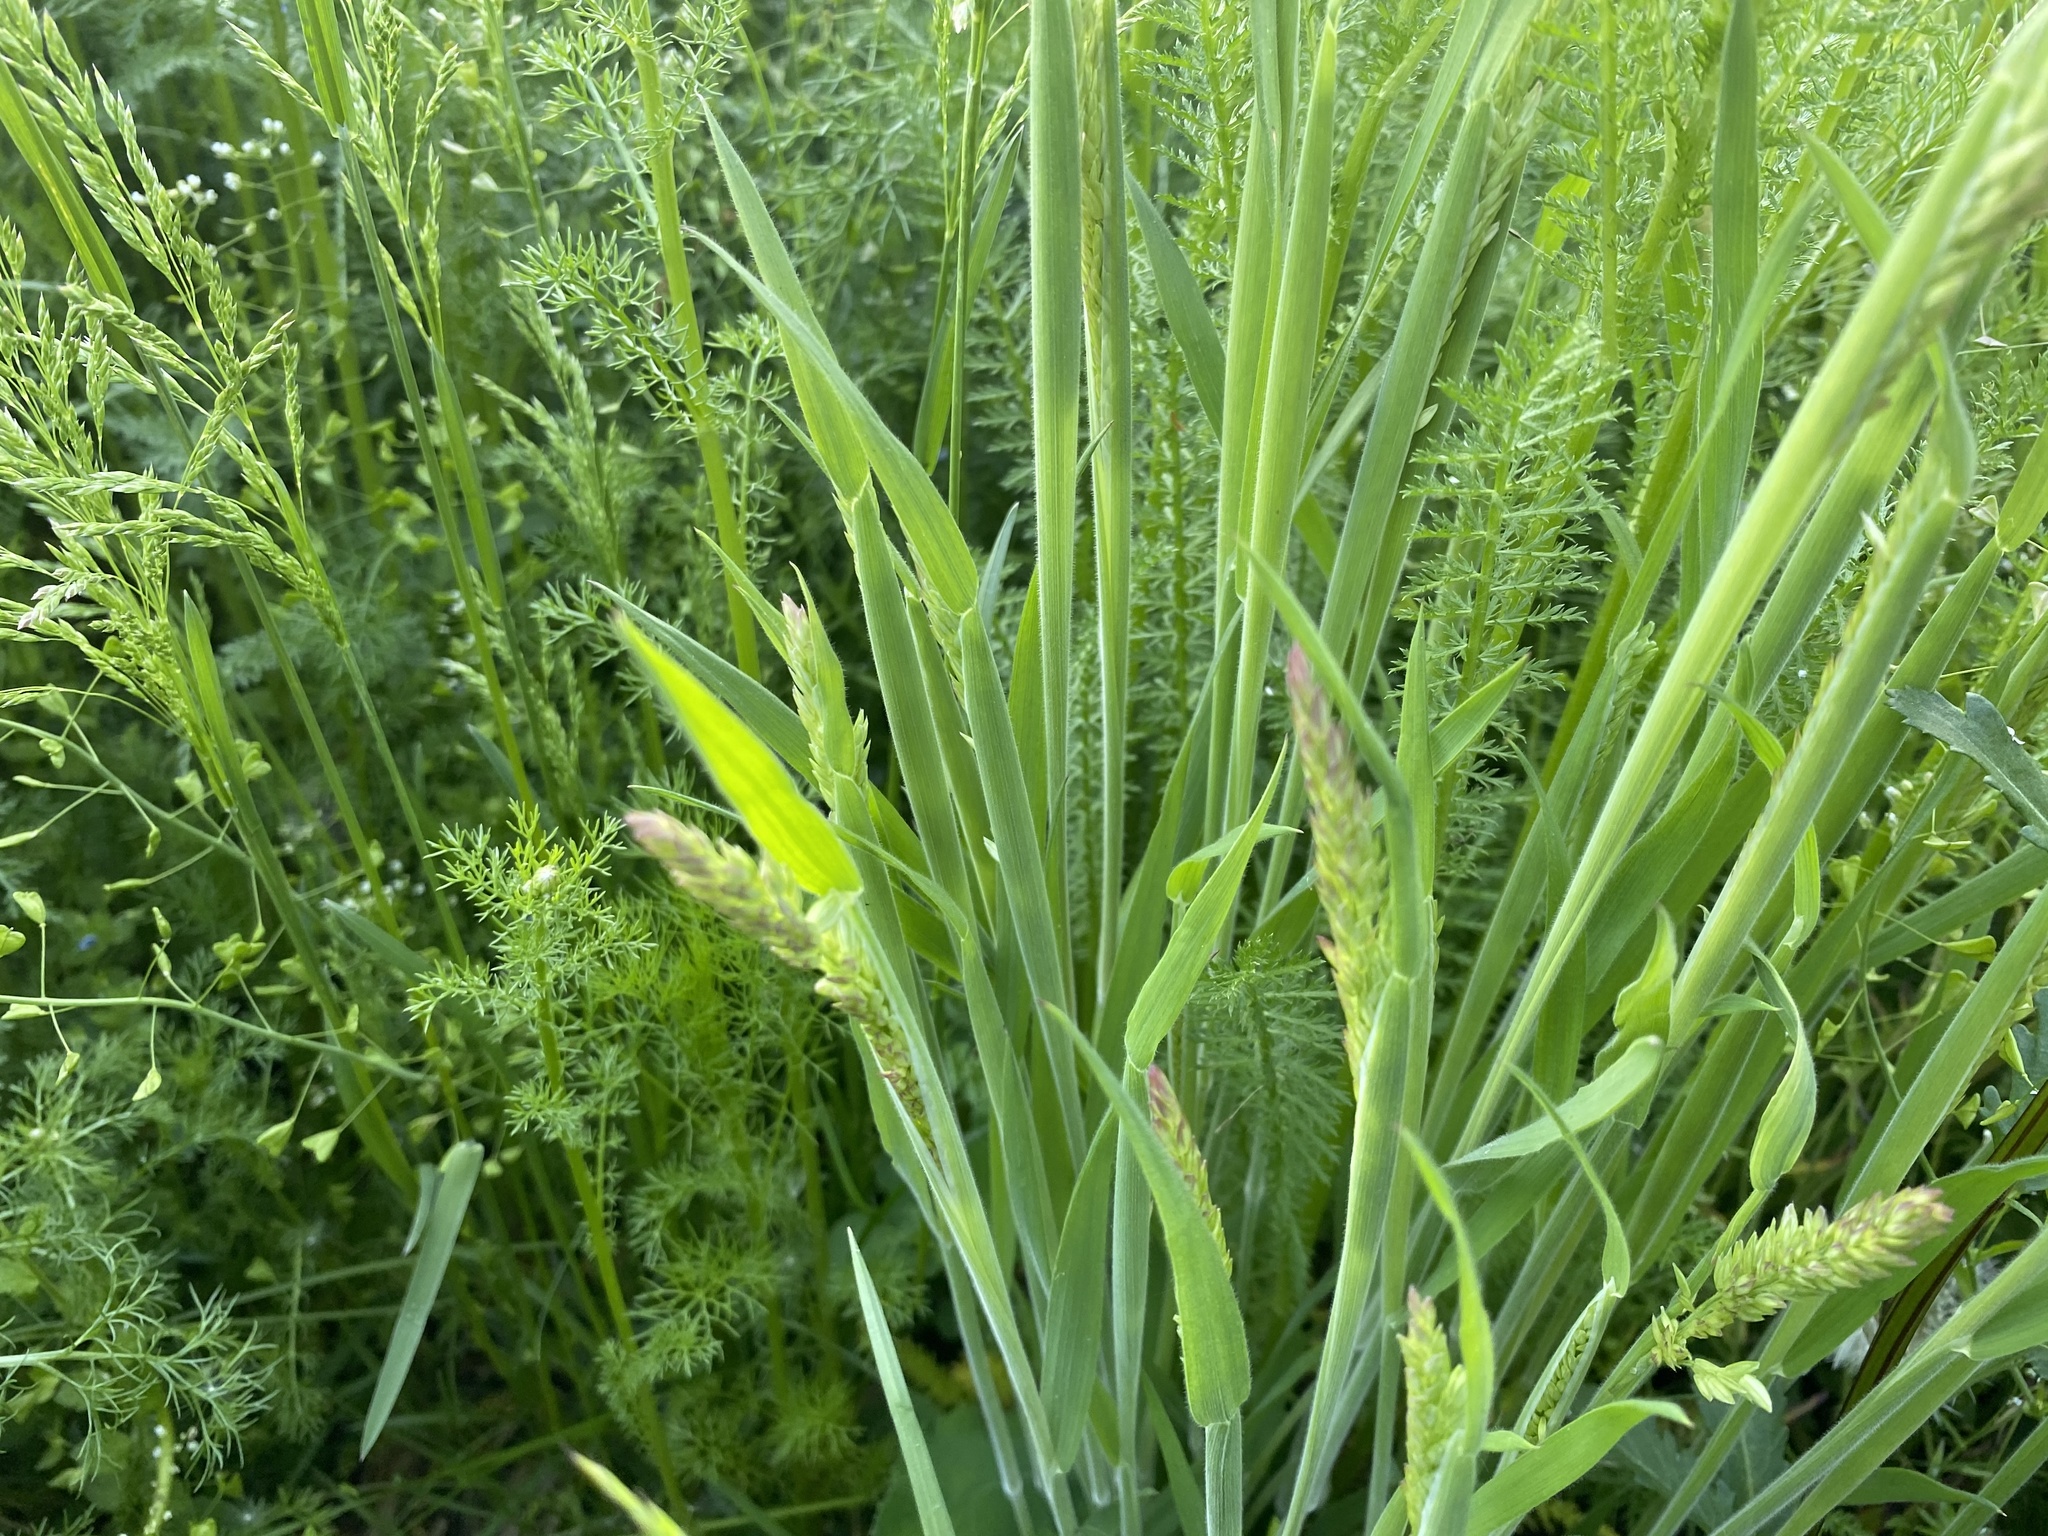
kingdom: Plantae
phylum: Tracheophyta
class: Liliopsida
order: Poales
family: Poaceae
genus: Holcus
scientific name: Holcus lanatus
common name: Yorkshire-fog
